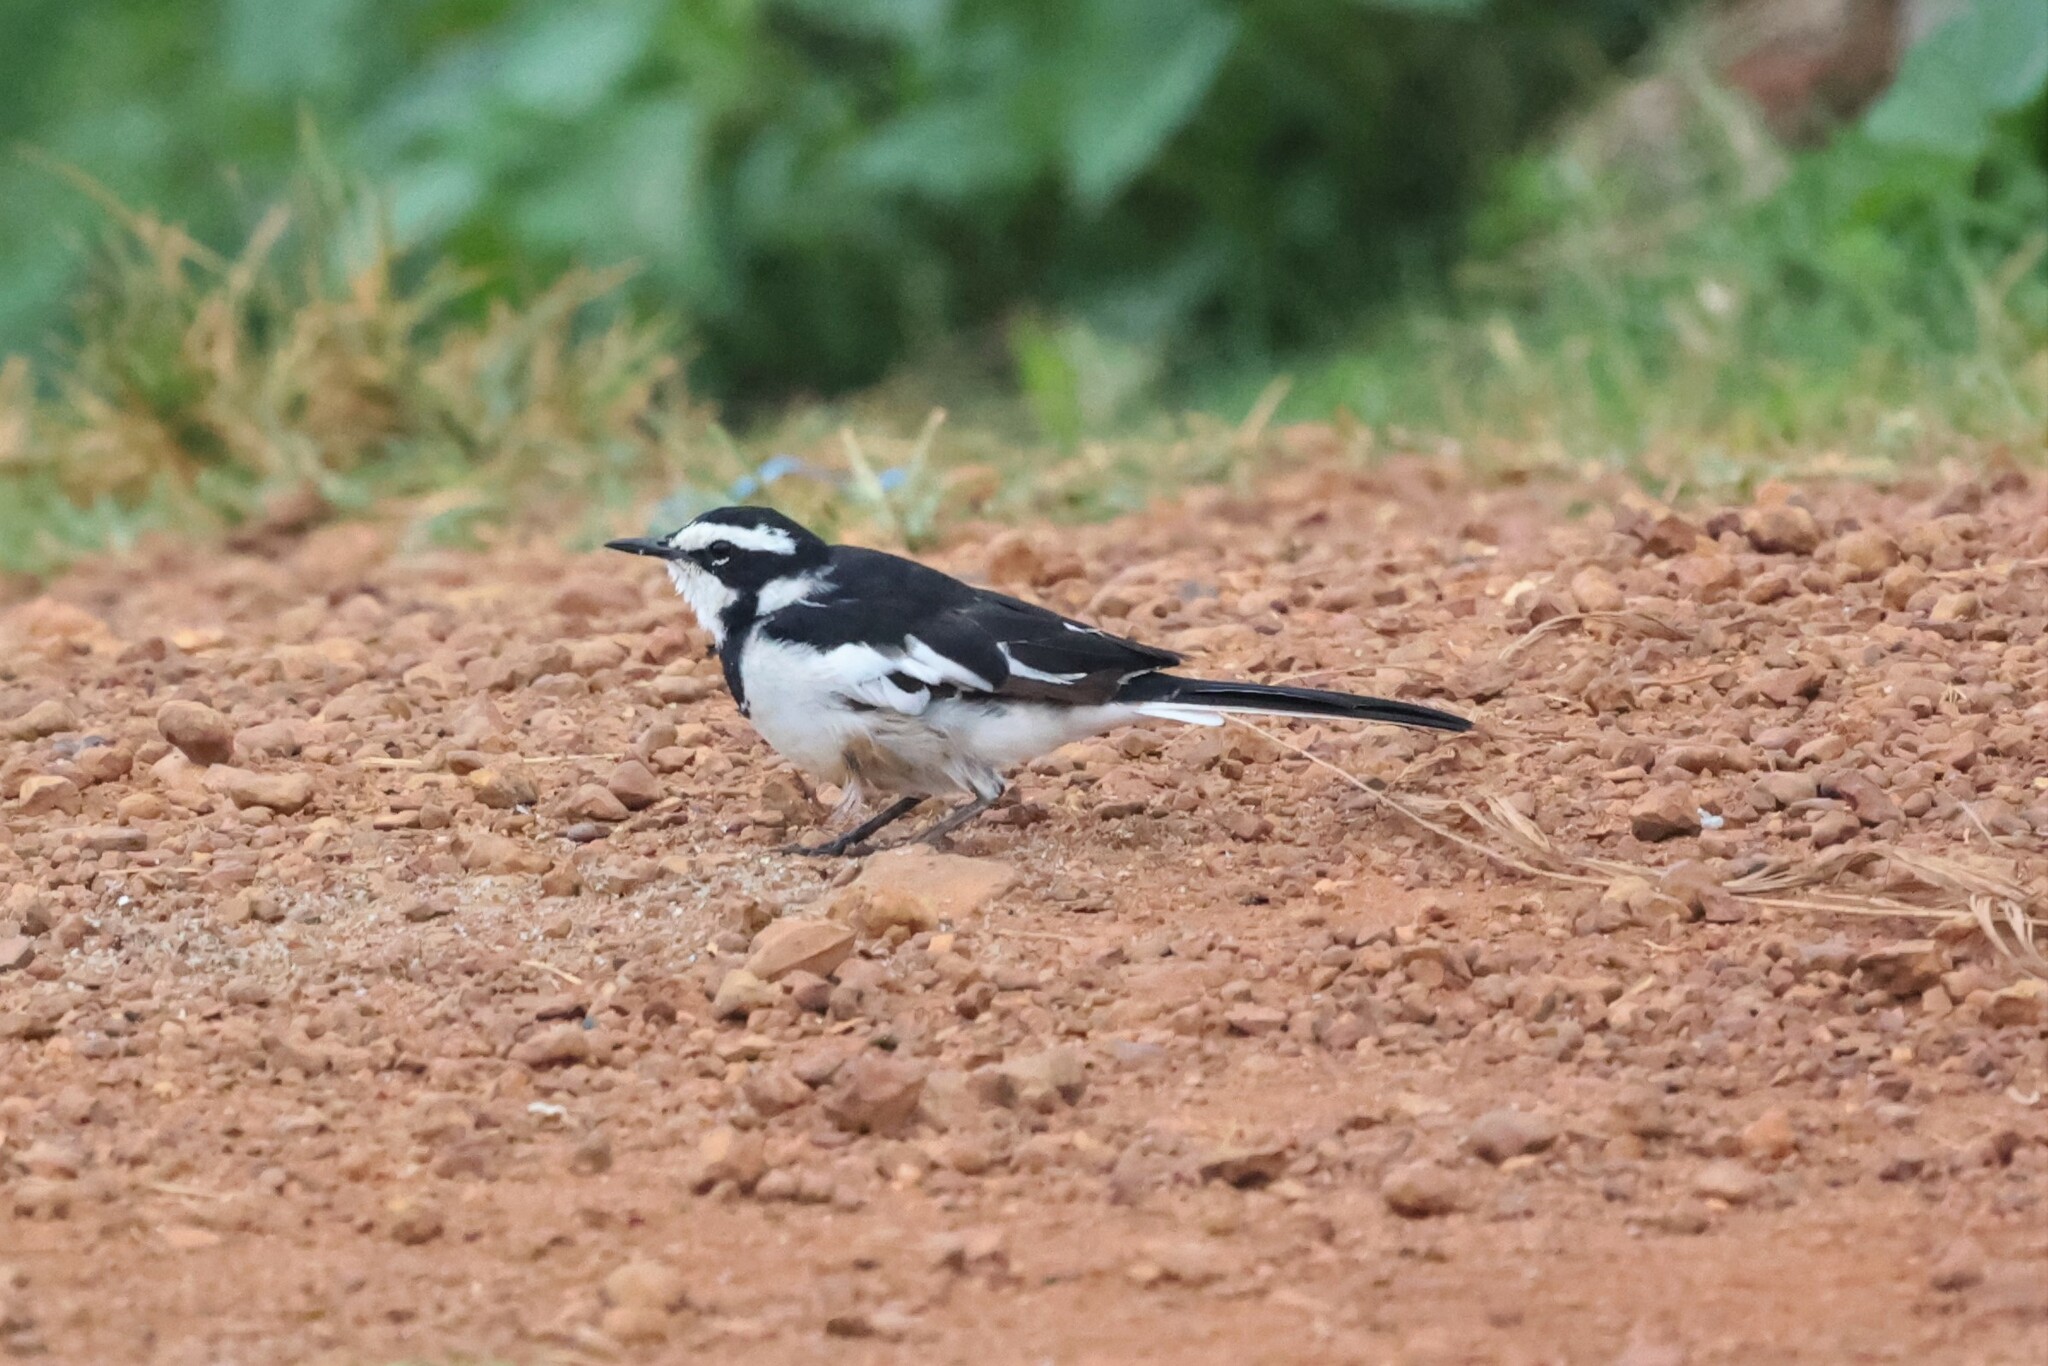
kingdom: Animalia
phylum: Chordata
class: Aves
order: Passeriformes
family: Motacillidae
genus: Motacilla
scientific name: Motacilla aguimp
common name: African pied wagtail
